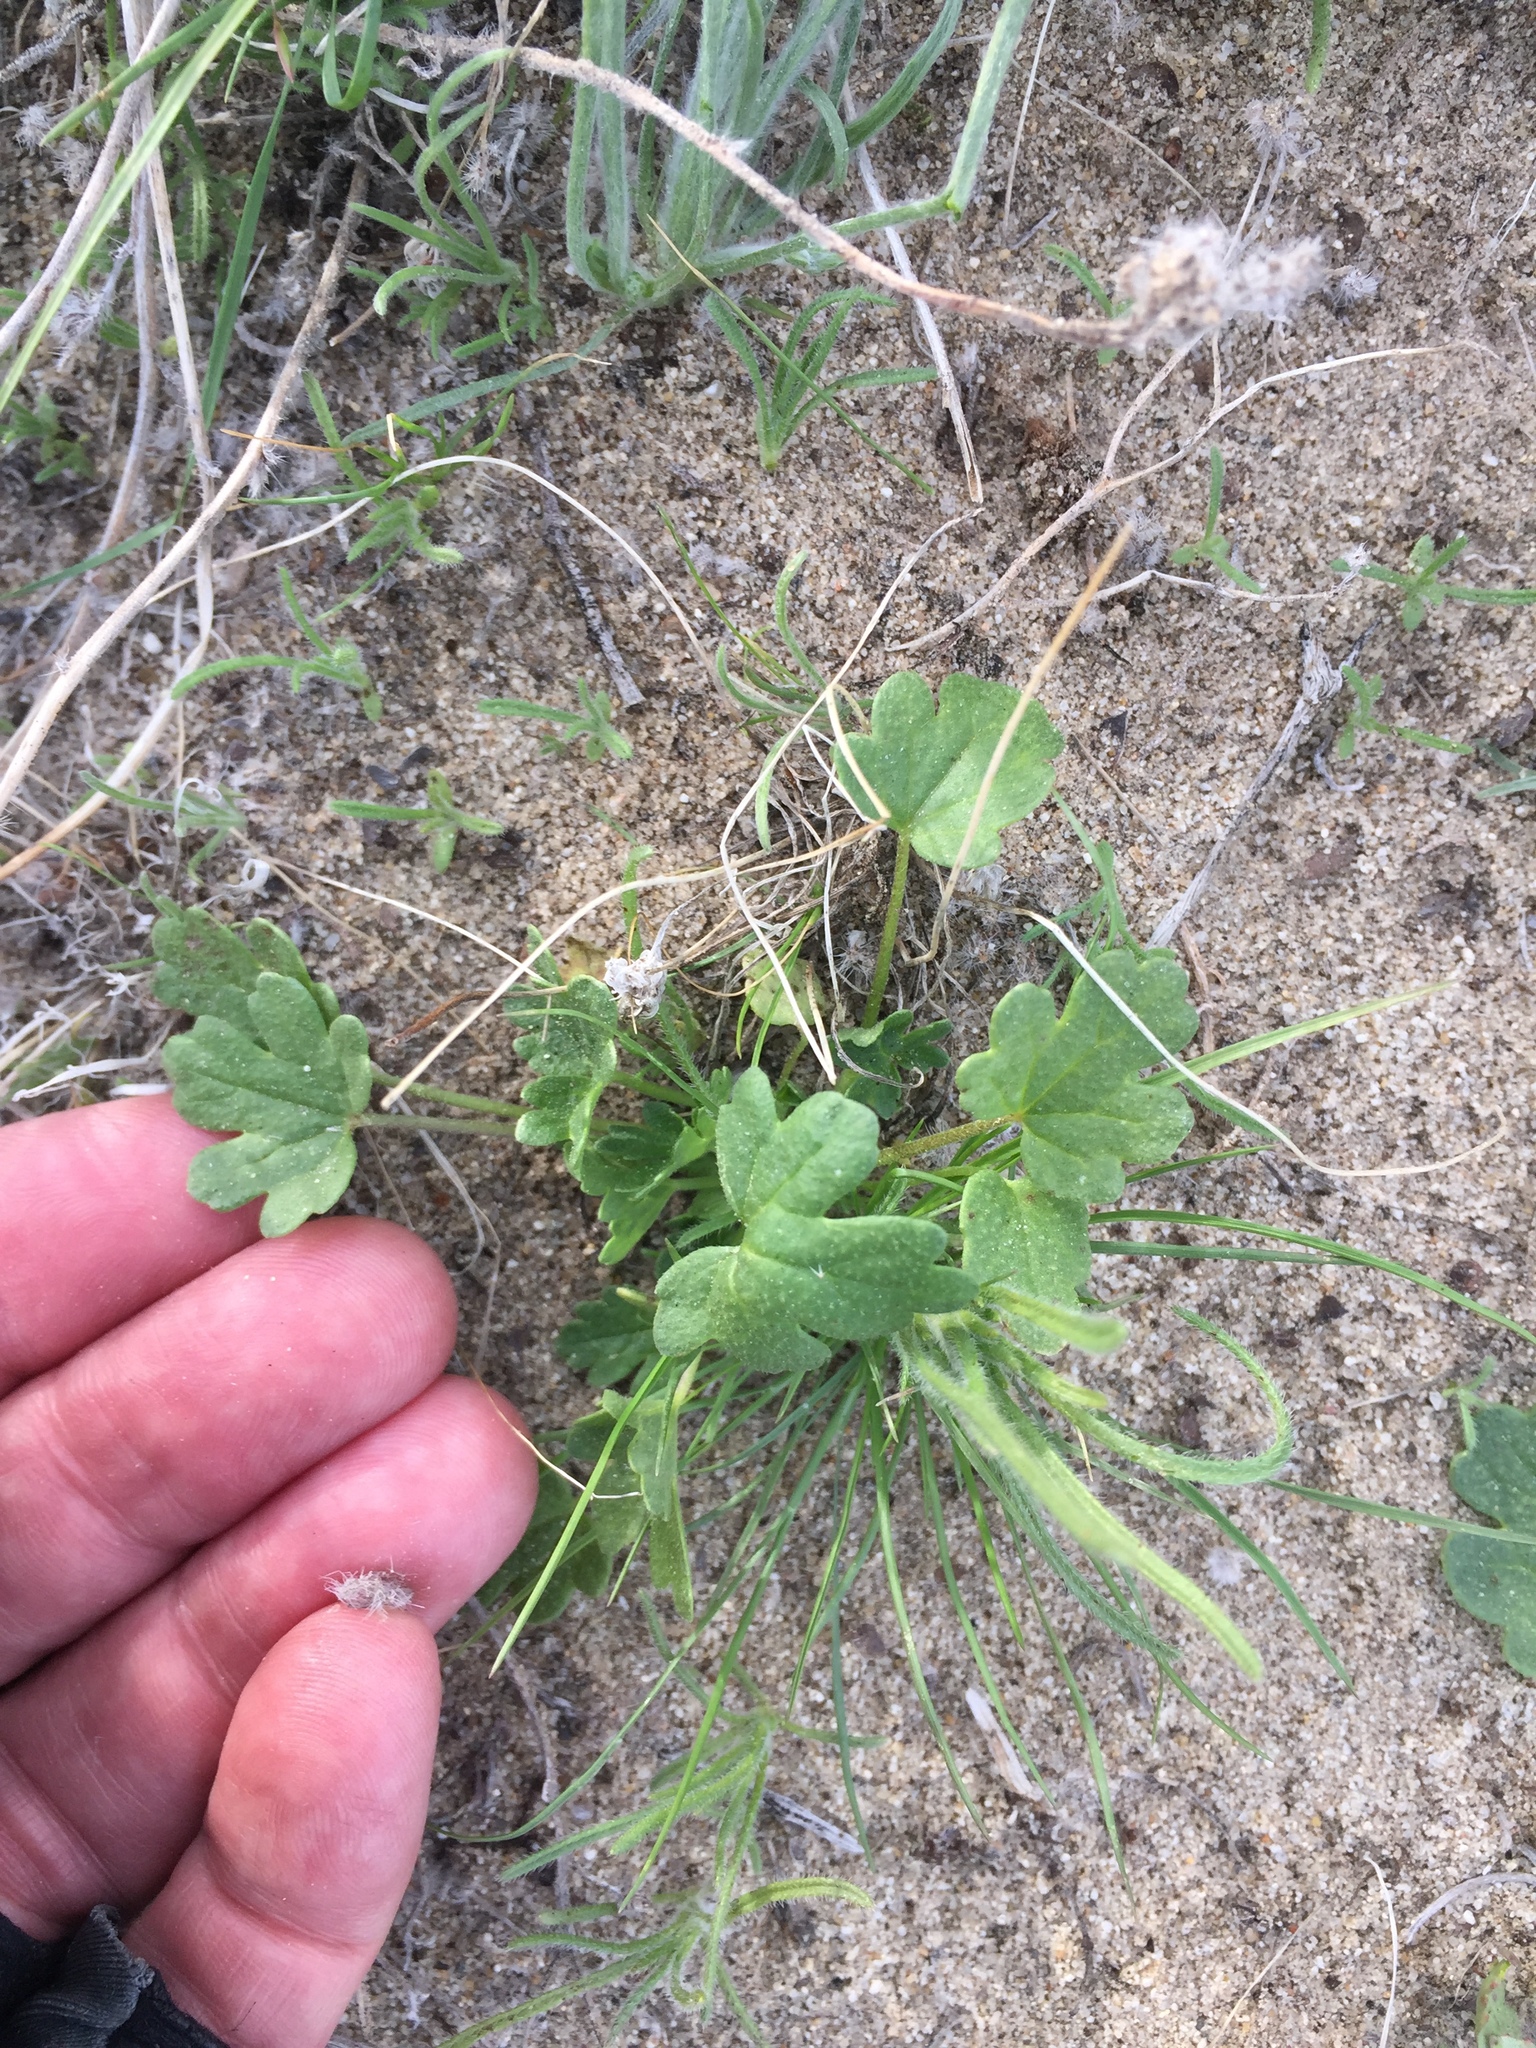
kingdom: Plantae
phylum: Tracheophyta
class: Magnoliopsida
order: Malvales
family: Malvaceae
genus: Eremalche
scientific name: Eremalche exilis
